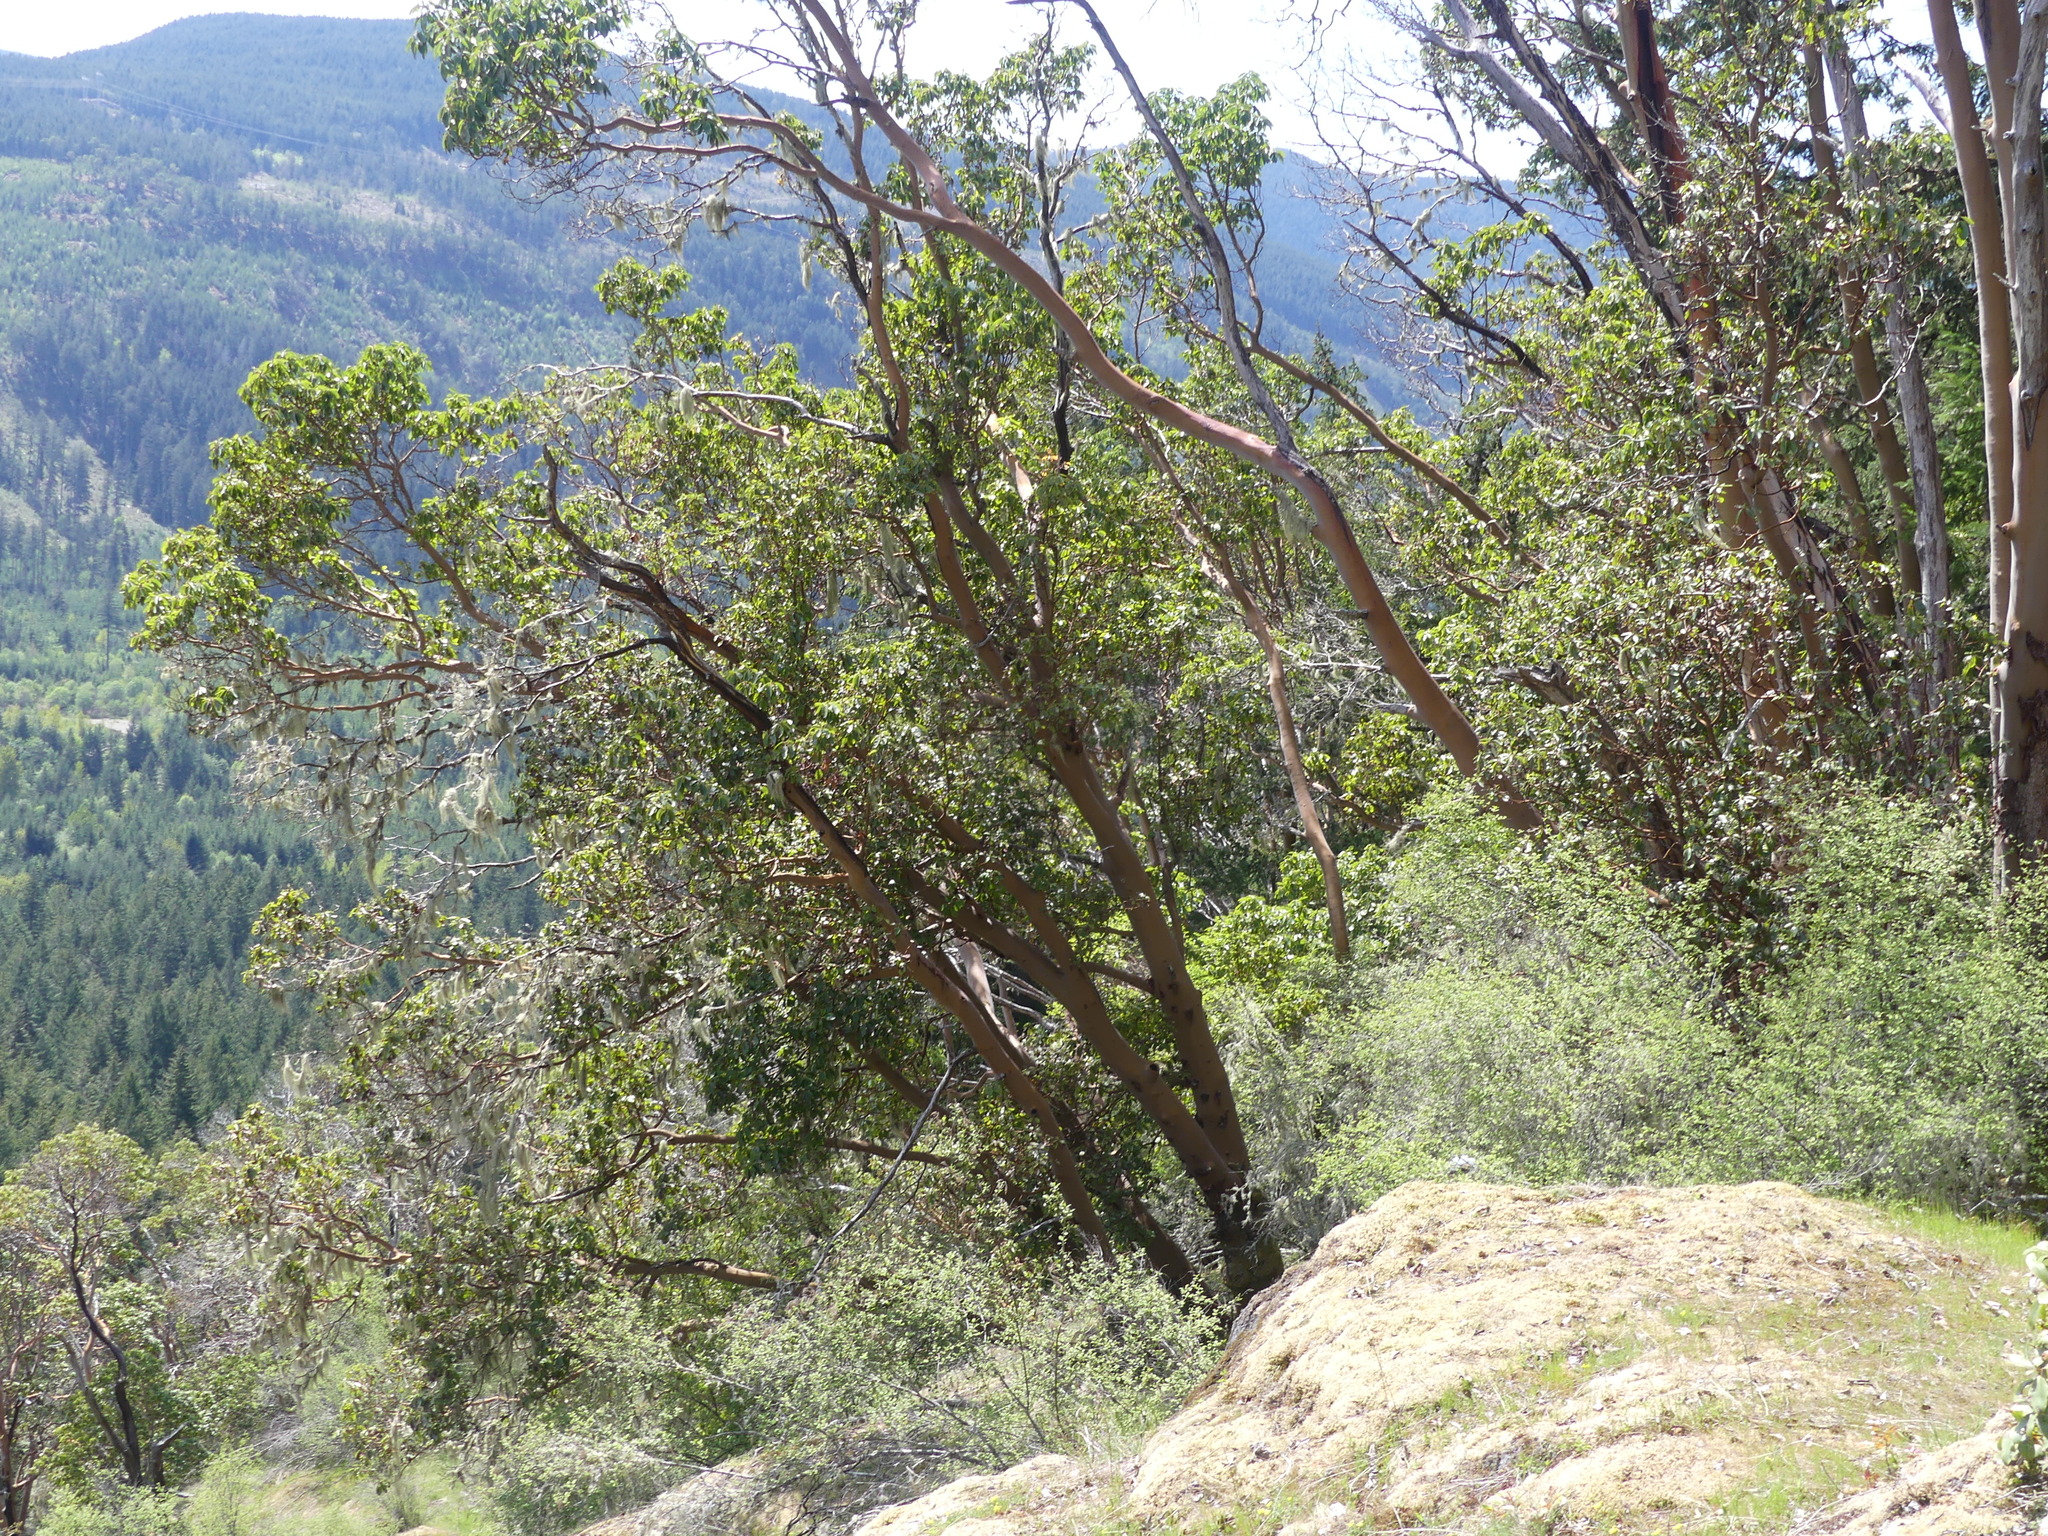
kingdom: Plantae
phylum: Tracheophyta
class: Magnoliopsida
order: Ericales
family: Ericaceae
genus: Arbutus
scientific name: Arbutus menziesii
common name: Pacific madrone
